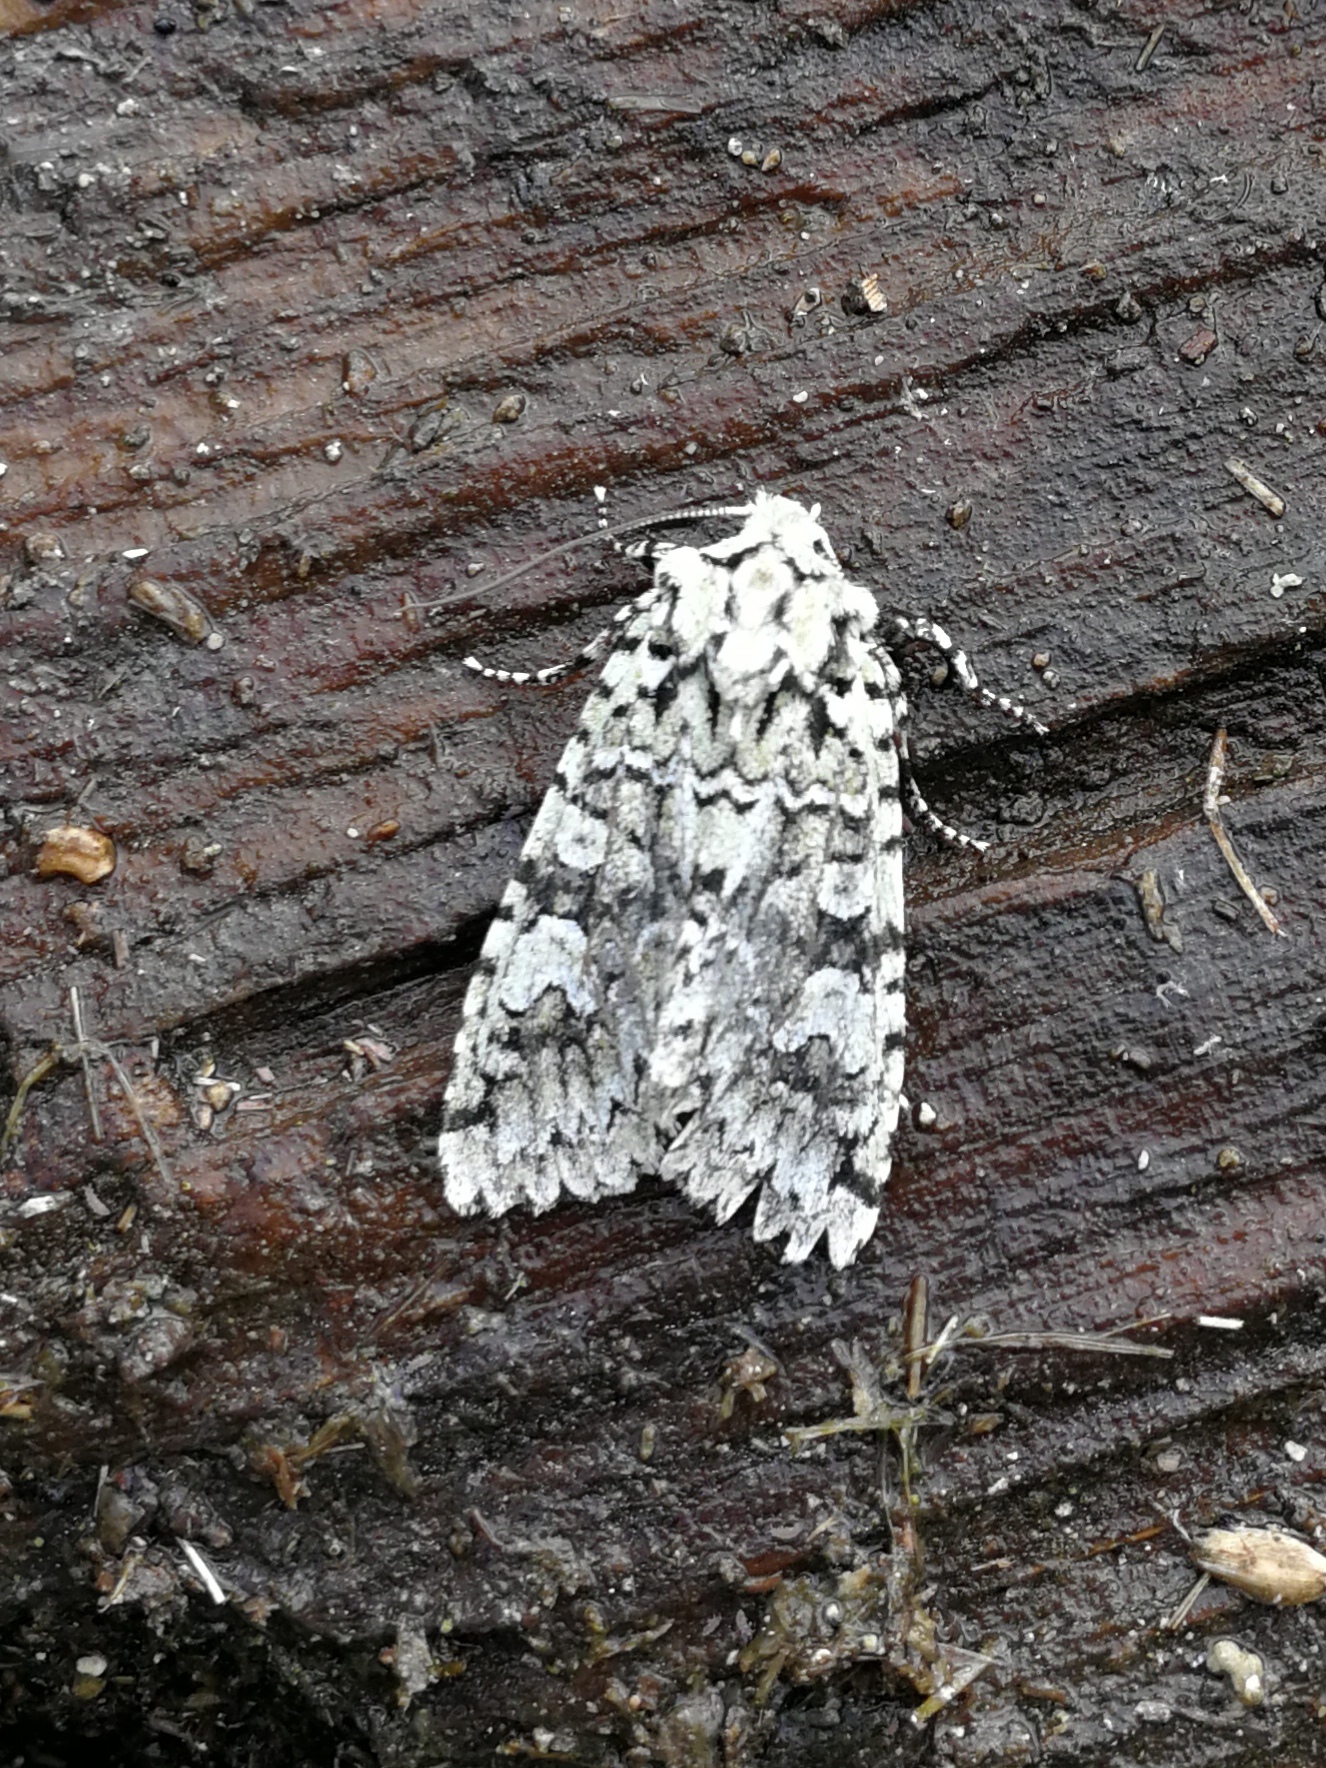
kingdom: Animalia
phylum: Arthropoda
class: Insecta
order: Lepidoptera
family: Noctuidae
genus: Griposia
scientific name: Griposia aprilina
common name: Merveille du jour
